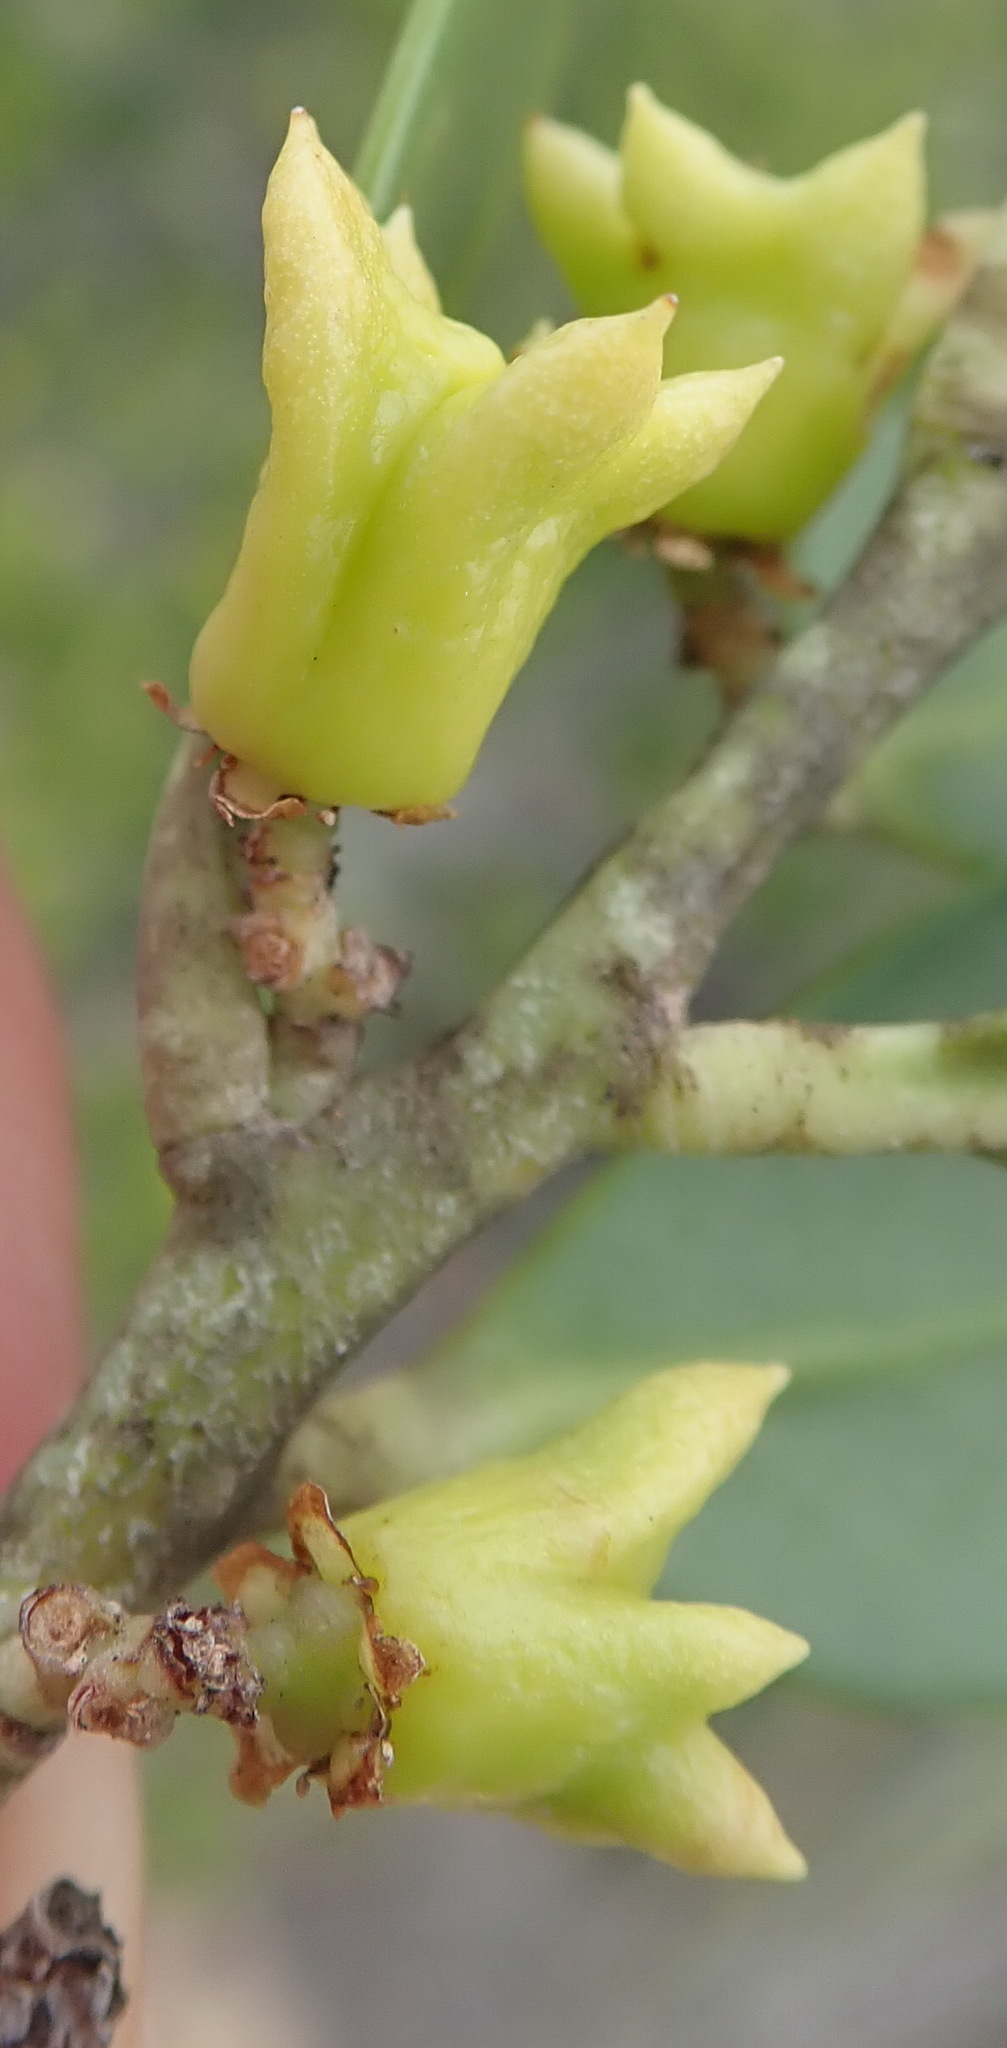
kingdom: Plantae
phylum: Tracheophyta
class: Magnoliopsida
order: Celastrales
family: Celastraceae
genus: Pterocelastrus
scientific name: Pterocelastrus tricuspidatus
